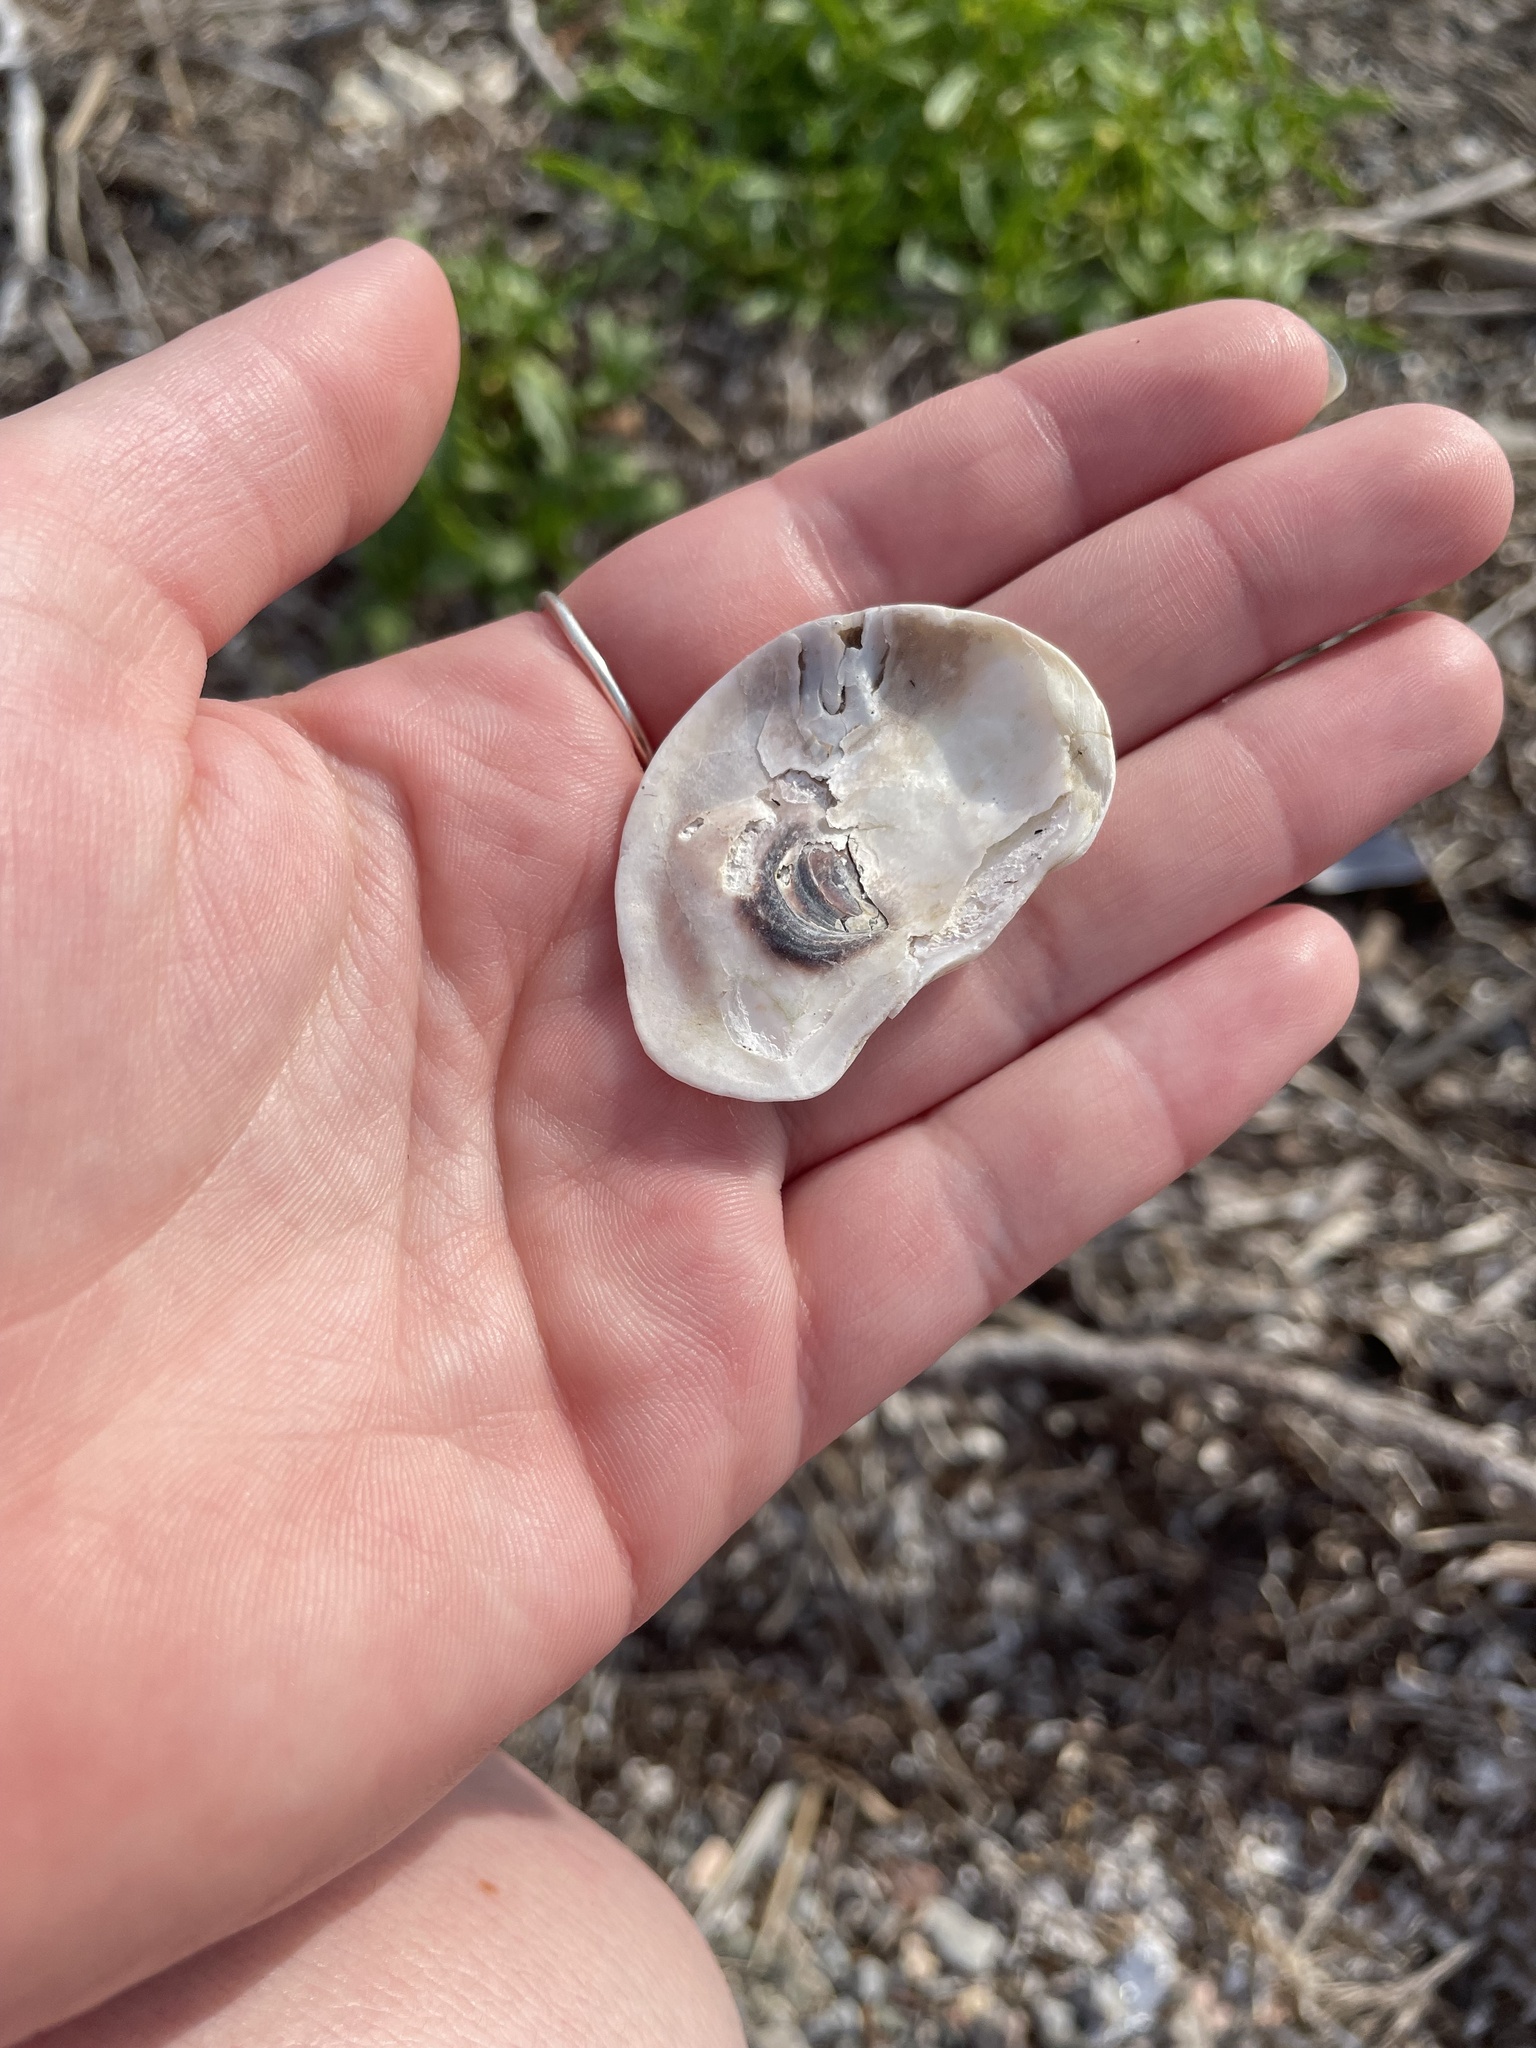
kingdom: Animalia
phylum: Mollusca
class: Bivalvia
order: Ostreida
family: Ostreidae
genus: Crassostrea
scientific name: Crassostrea virginica
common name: American oyster
